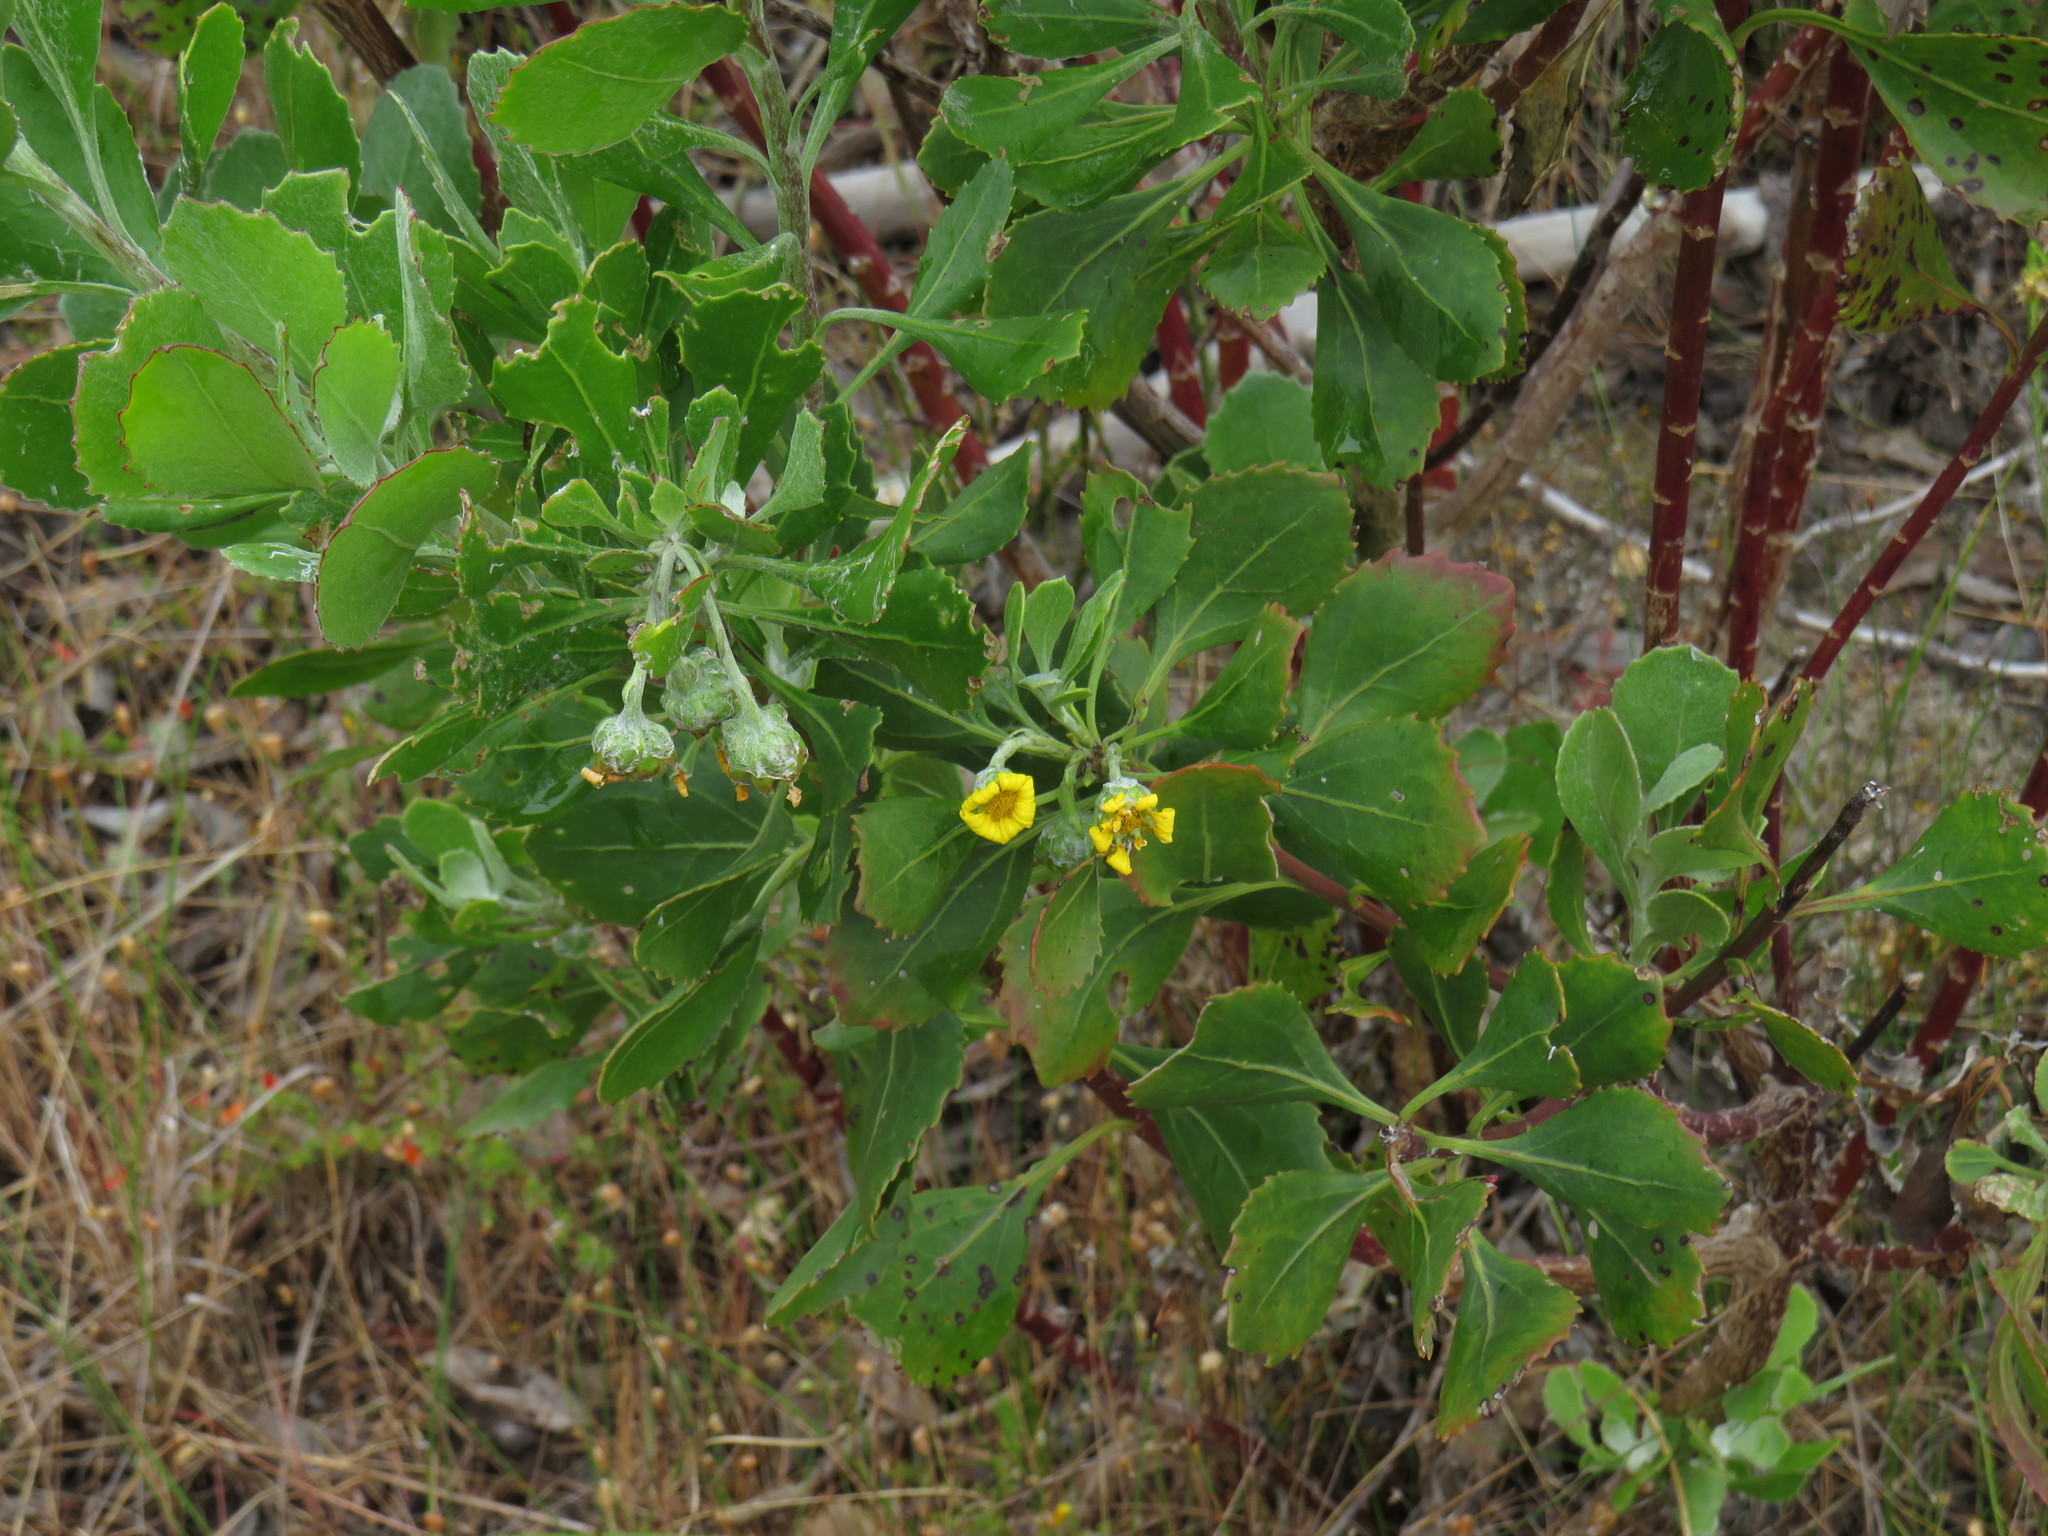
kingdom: Plantae
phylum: Tracheophyta
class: Magnoliopsida
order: Asterales
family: Asteraceae
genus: Osteospermum
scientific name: Osteospermum moniliferum
